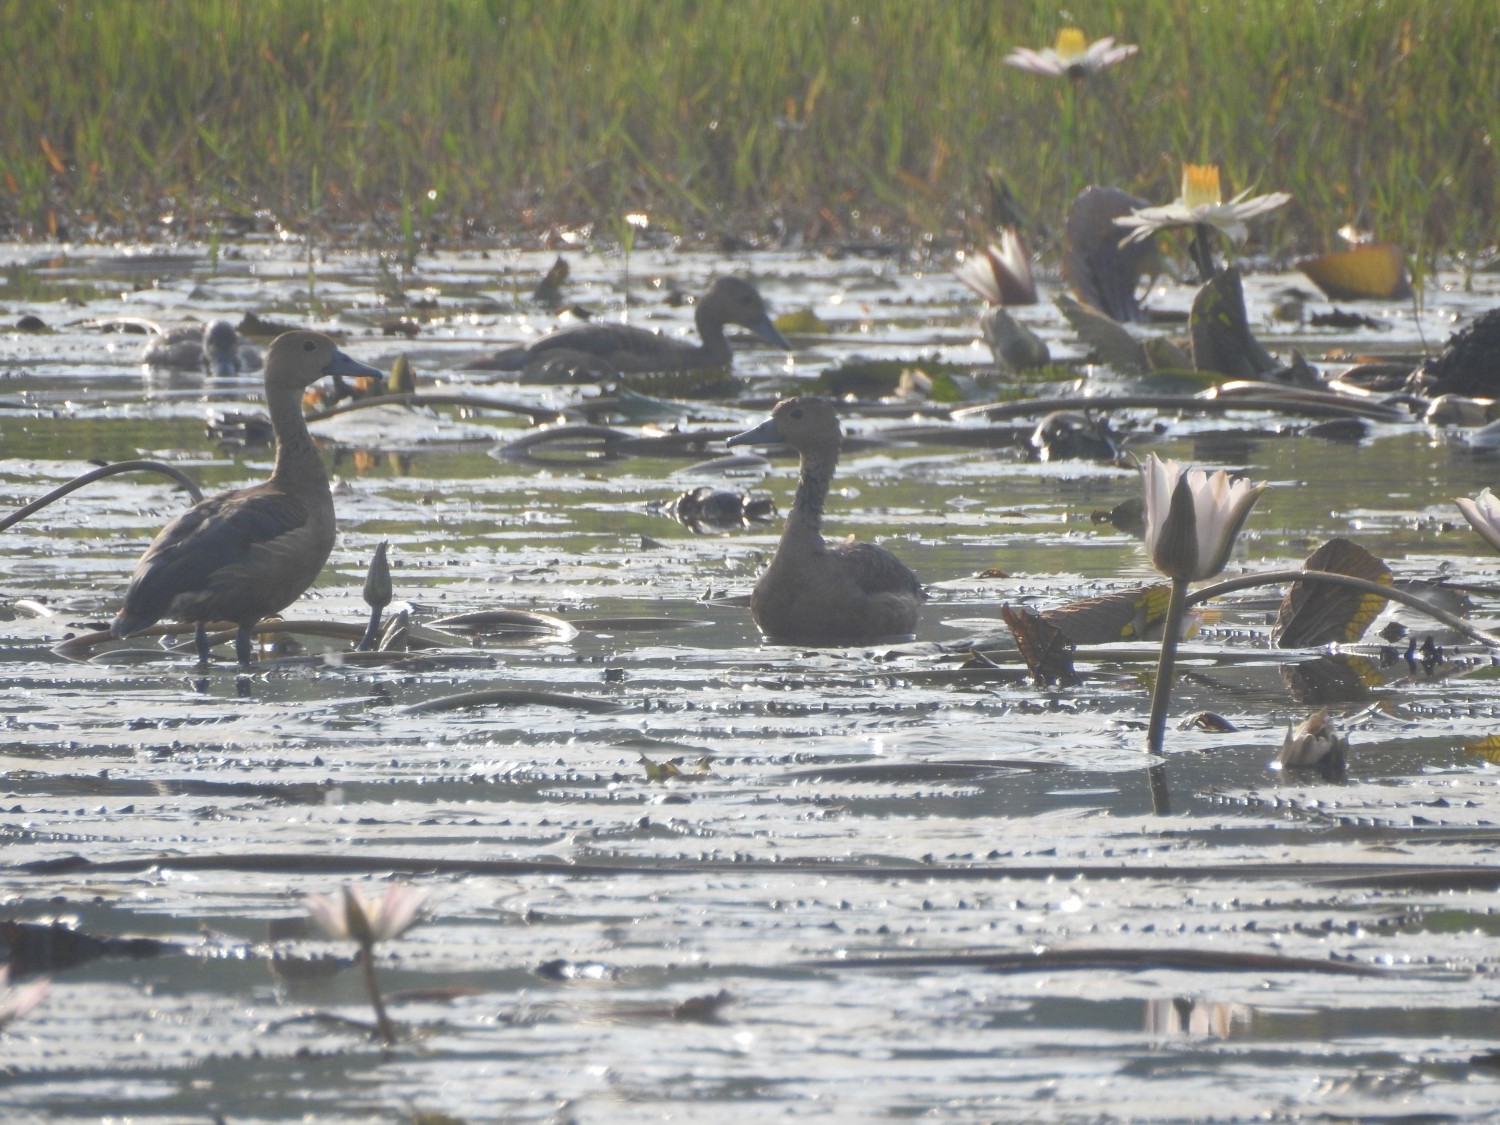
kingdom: Animalia
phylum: Chordata
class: Aves
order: Anseriformes
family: Anatidae
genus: Dendrocygna
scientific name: Dendrocygna javanica
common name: Lesser whistling-duck
